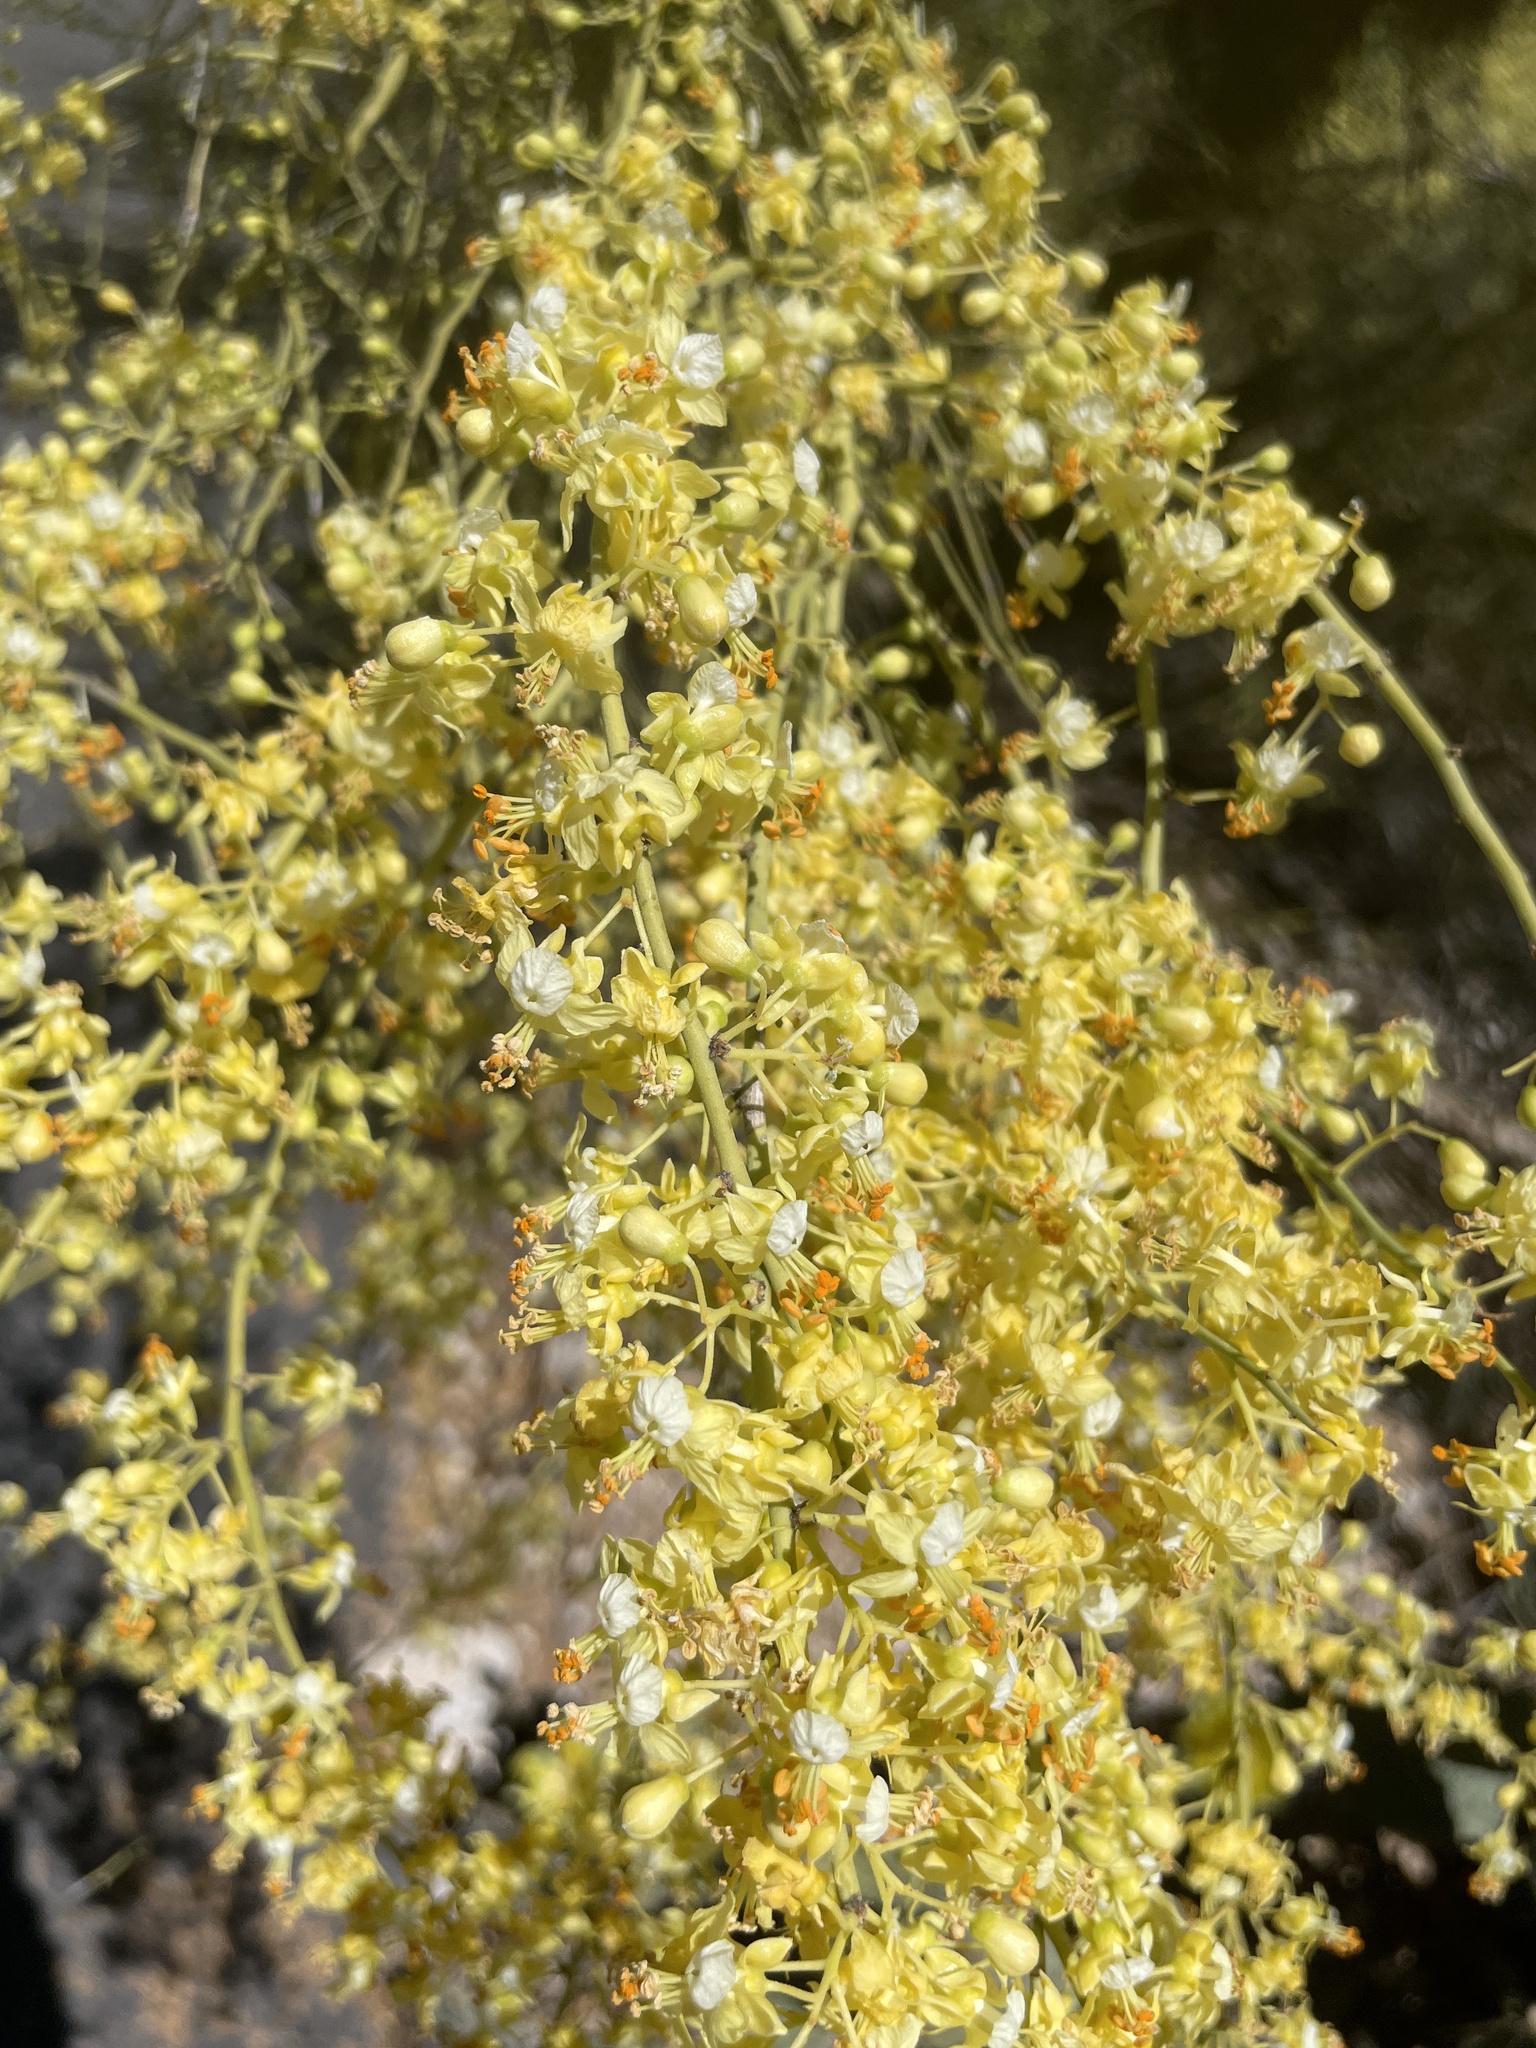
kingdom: Plantae
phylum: Tracheophyta
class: Magnoliopsida
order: Fabales
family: Fabaceae
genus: Parkinsonia
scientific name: Parkinsonia microphylla
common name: Yellow paloverde
